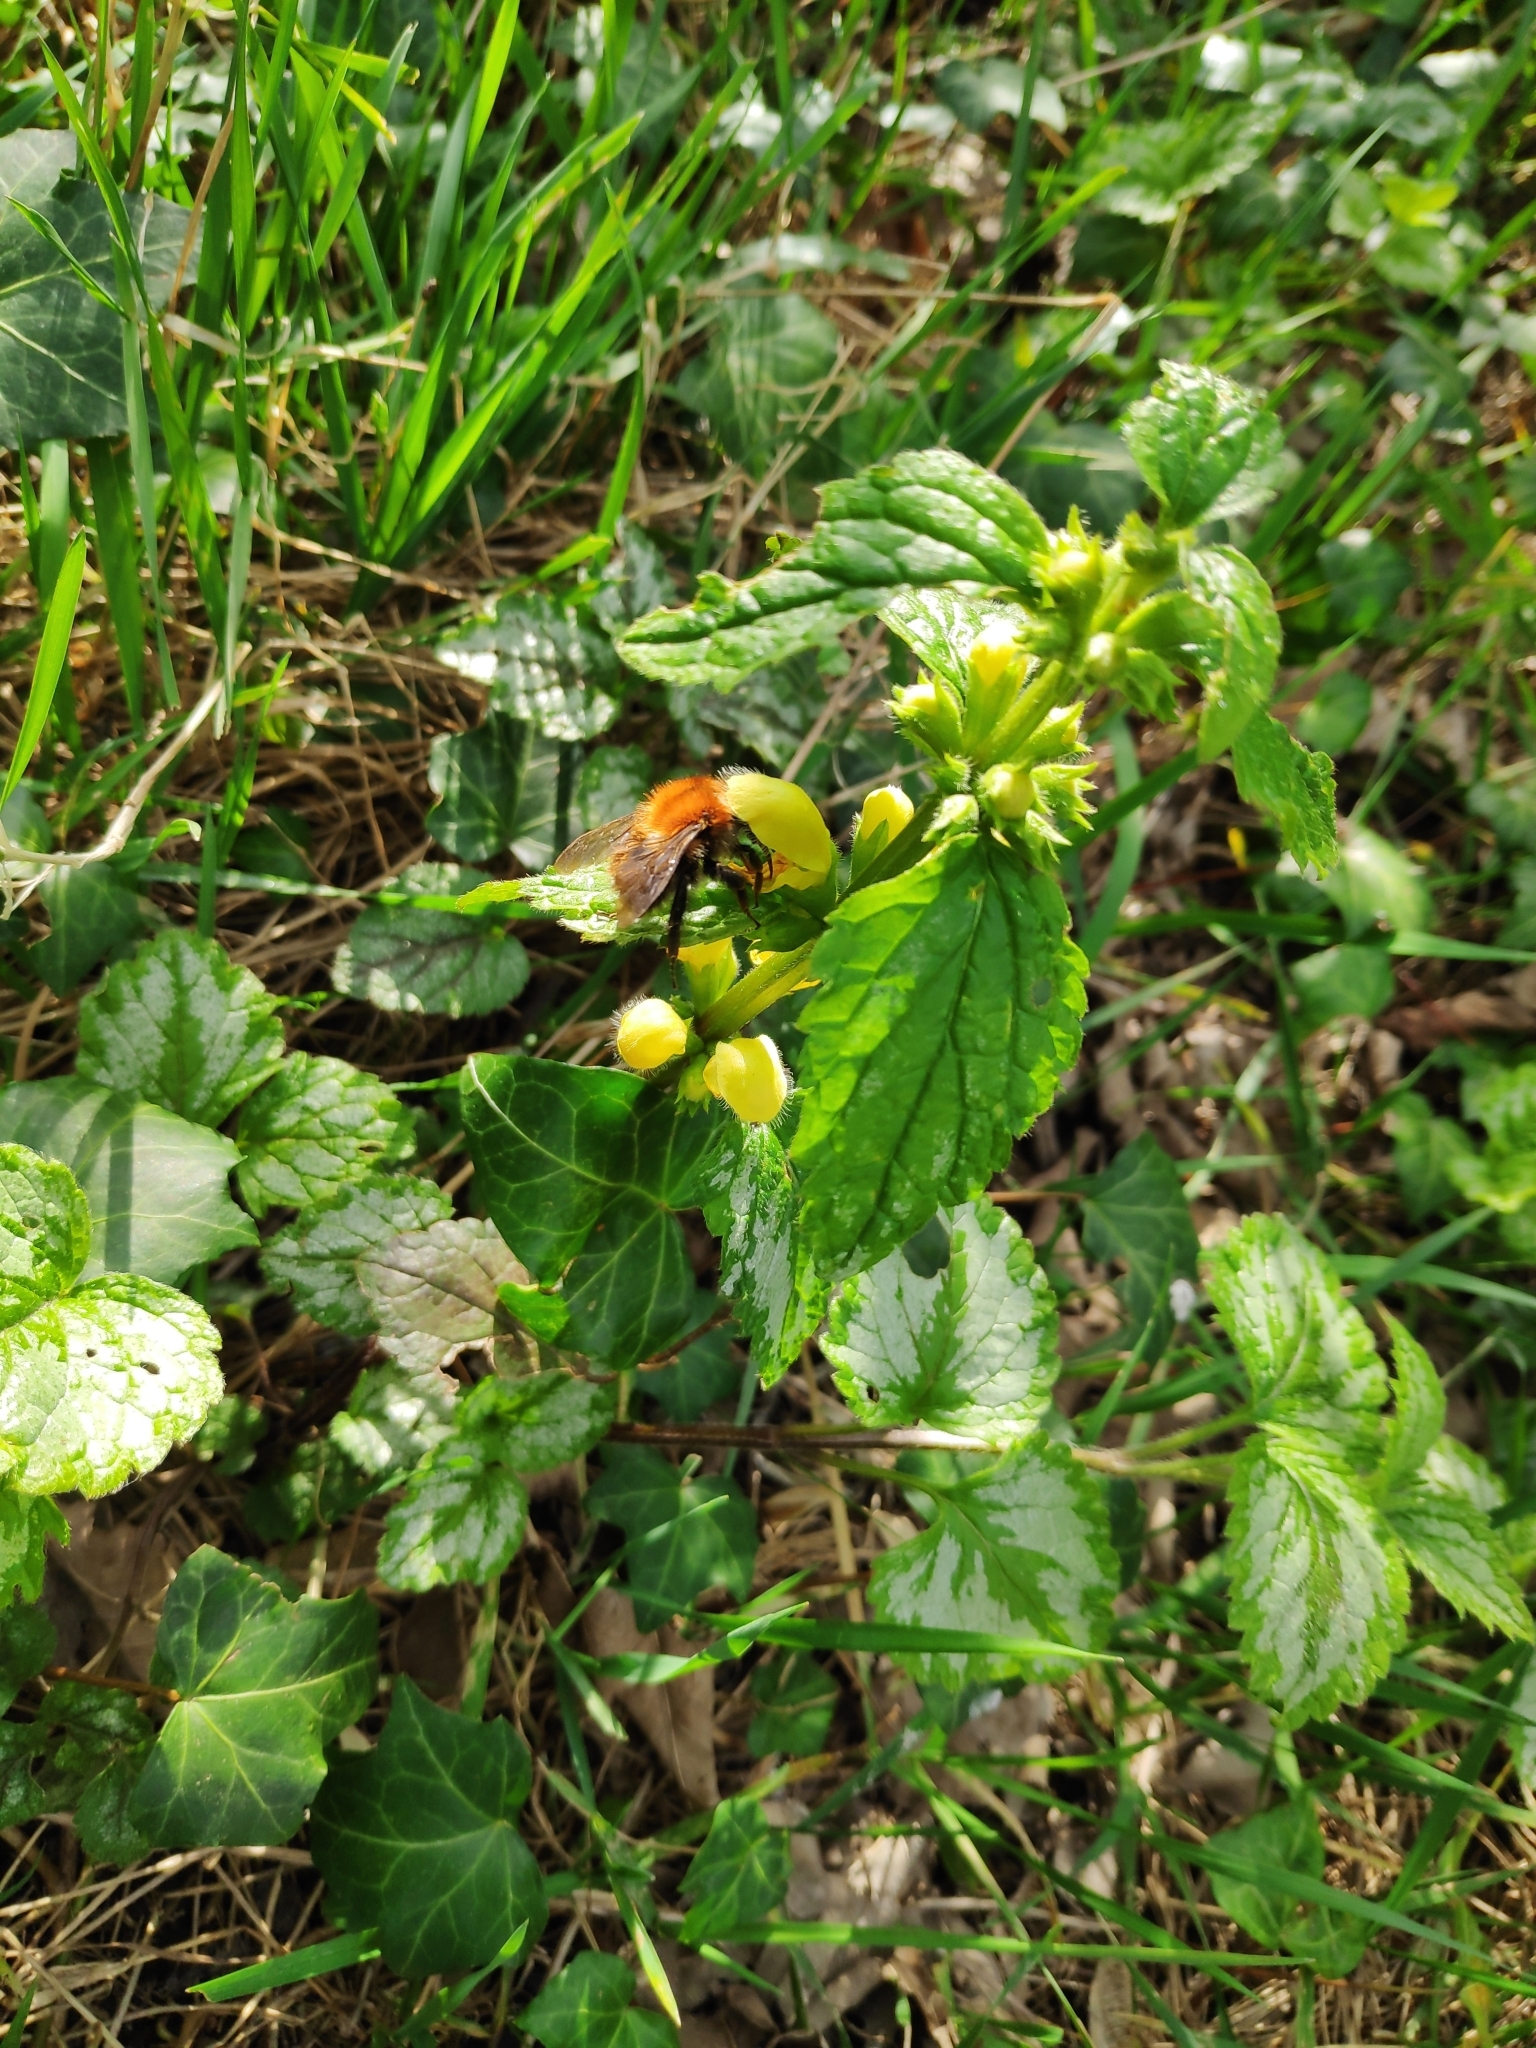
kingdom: Animalia
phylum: Arthropoda
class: Insecta
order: Hymenoptera
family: Apidae
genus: Bombus
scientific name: Bombus pascuorum
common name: Common carder bee
